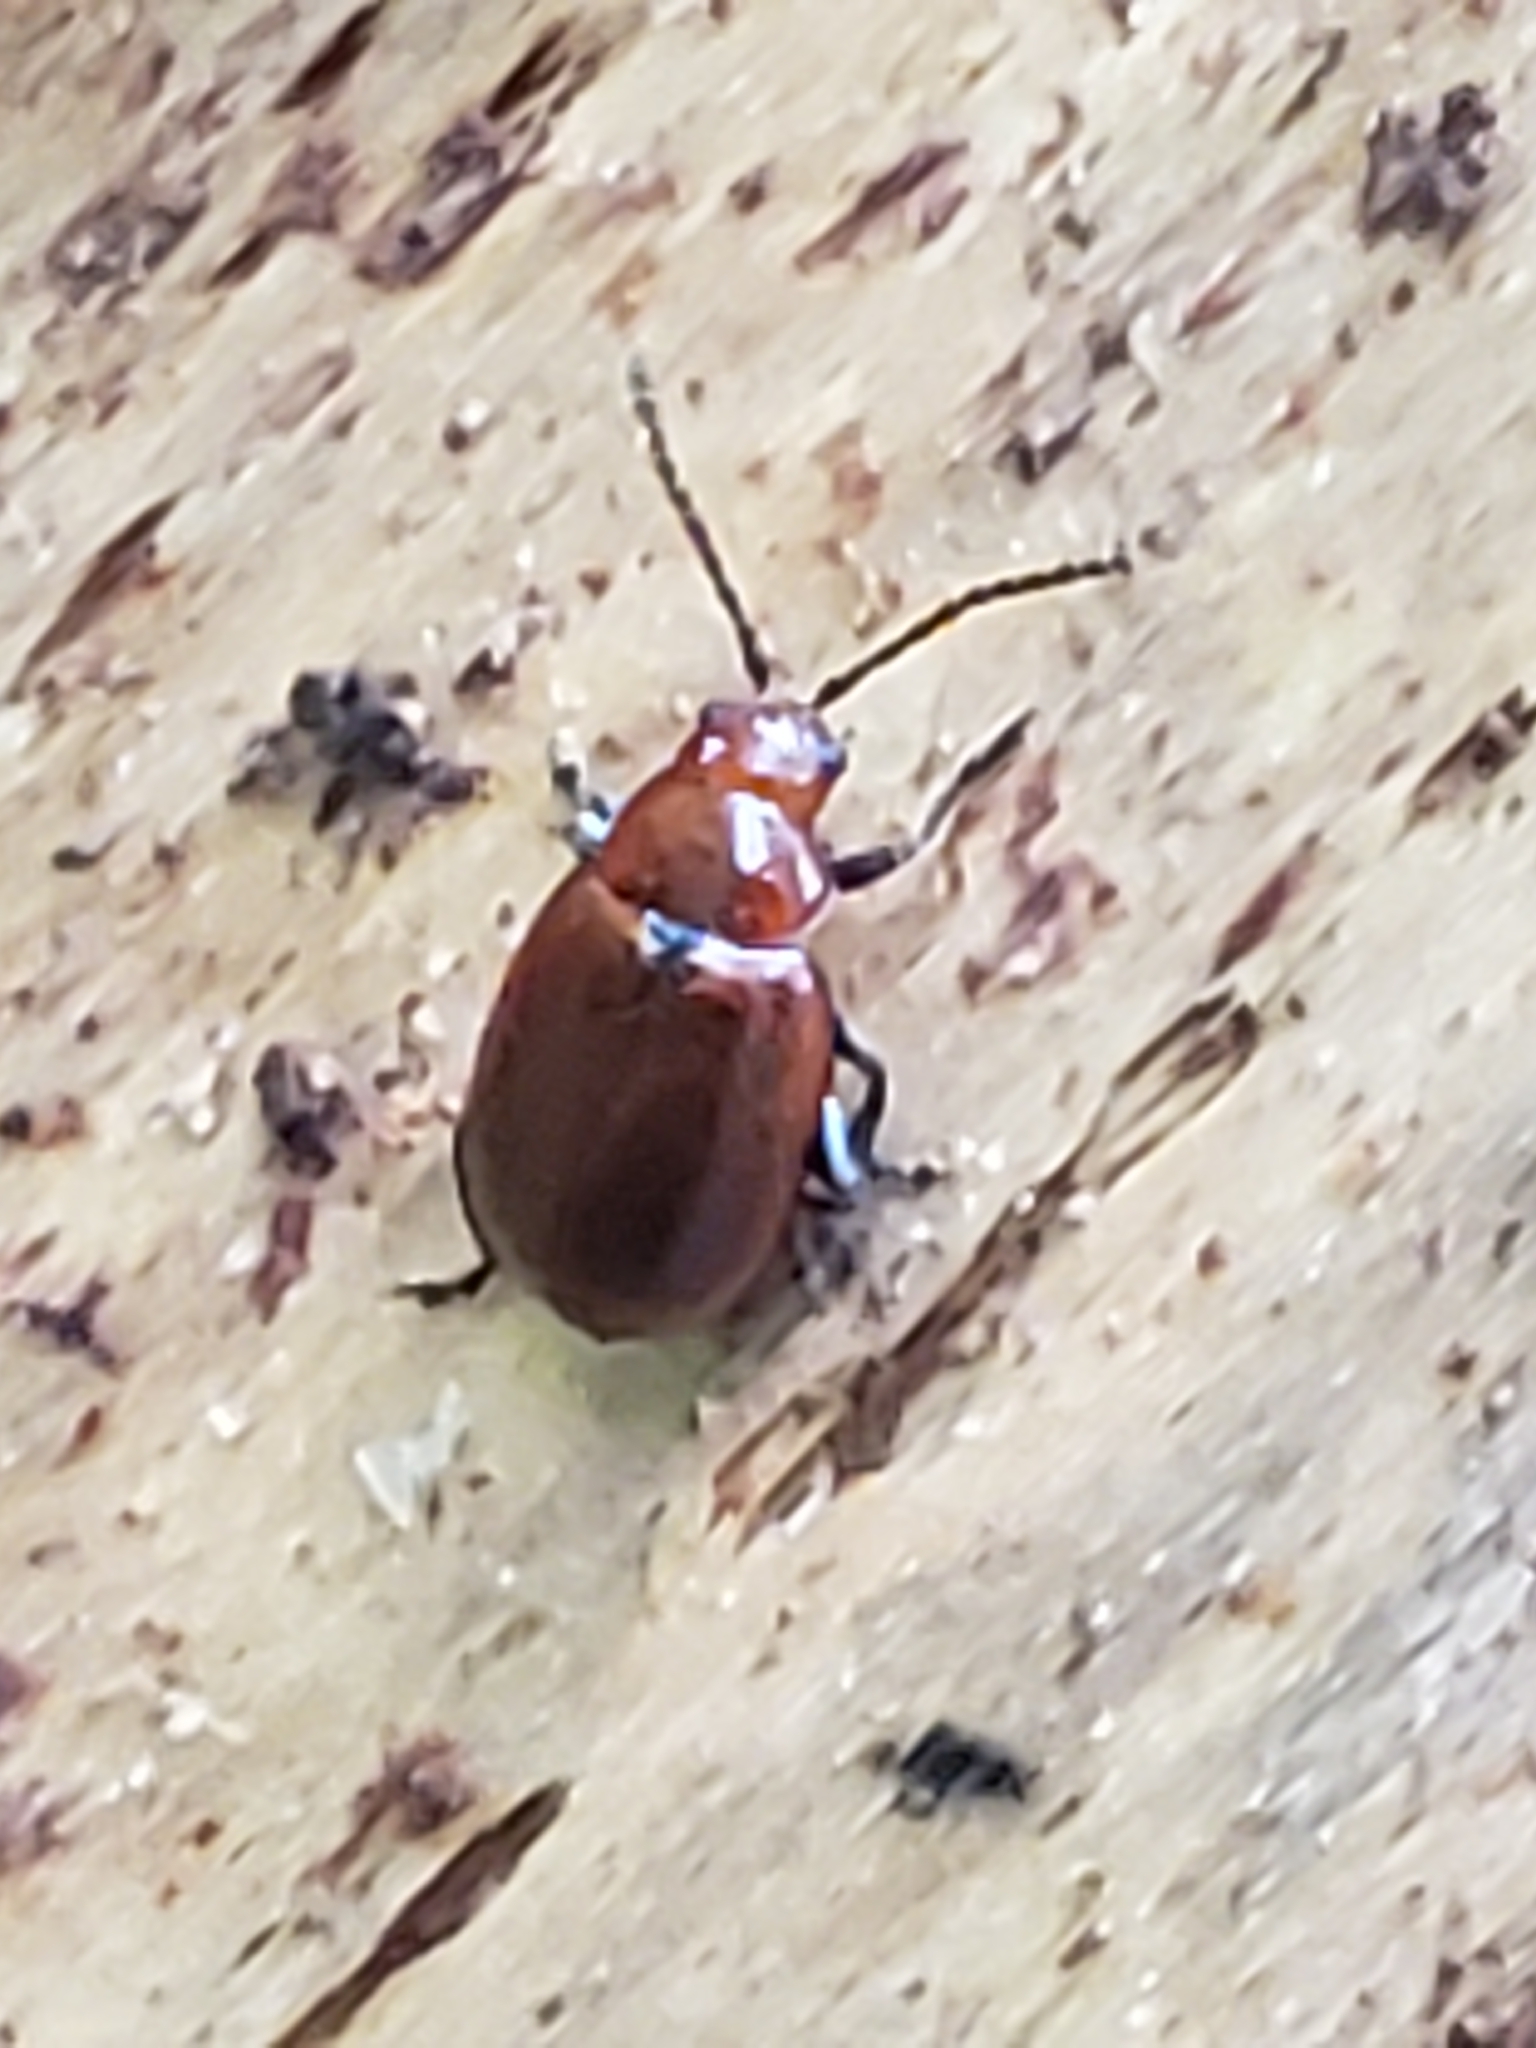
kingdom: Animalia
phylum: Arthropoda
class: Insecta
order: Coleoptera
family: Chrysomelidae
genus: Strabala
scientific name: Strabala rufa
